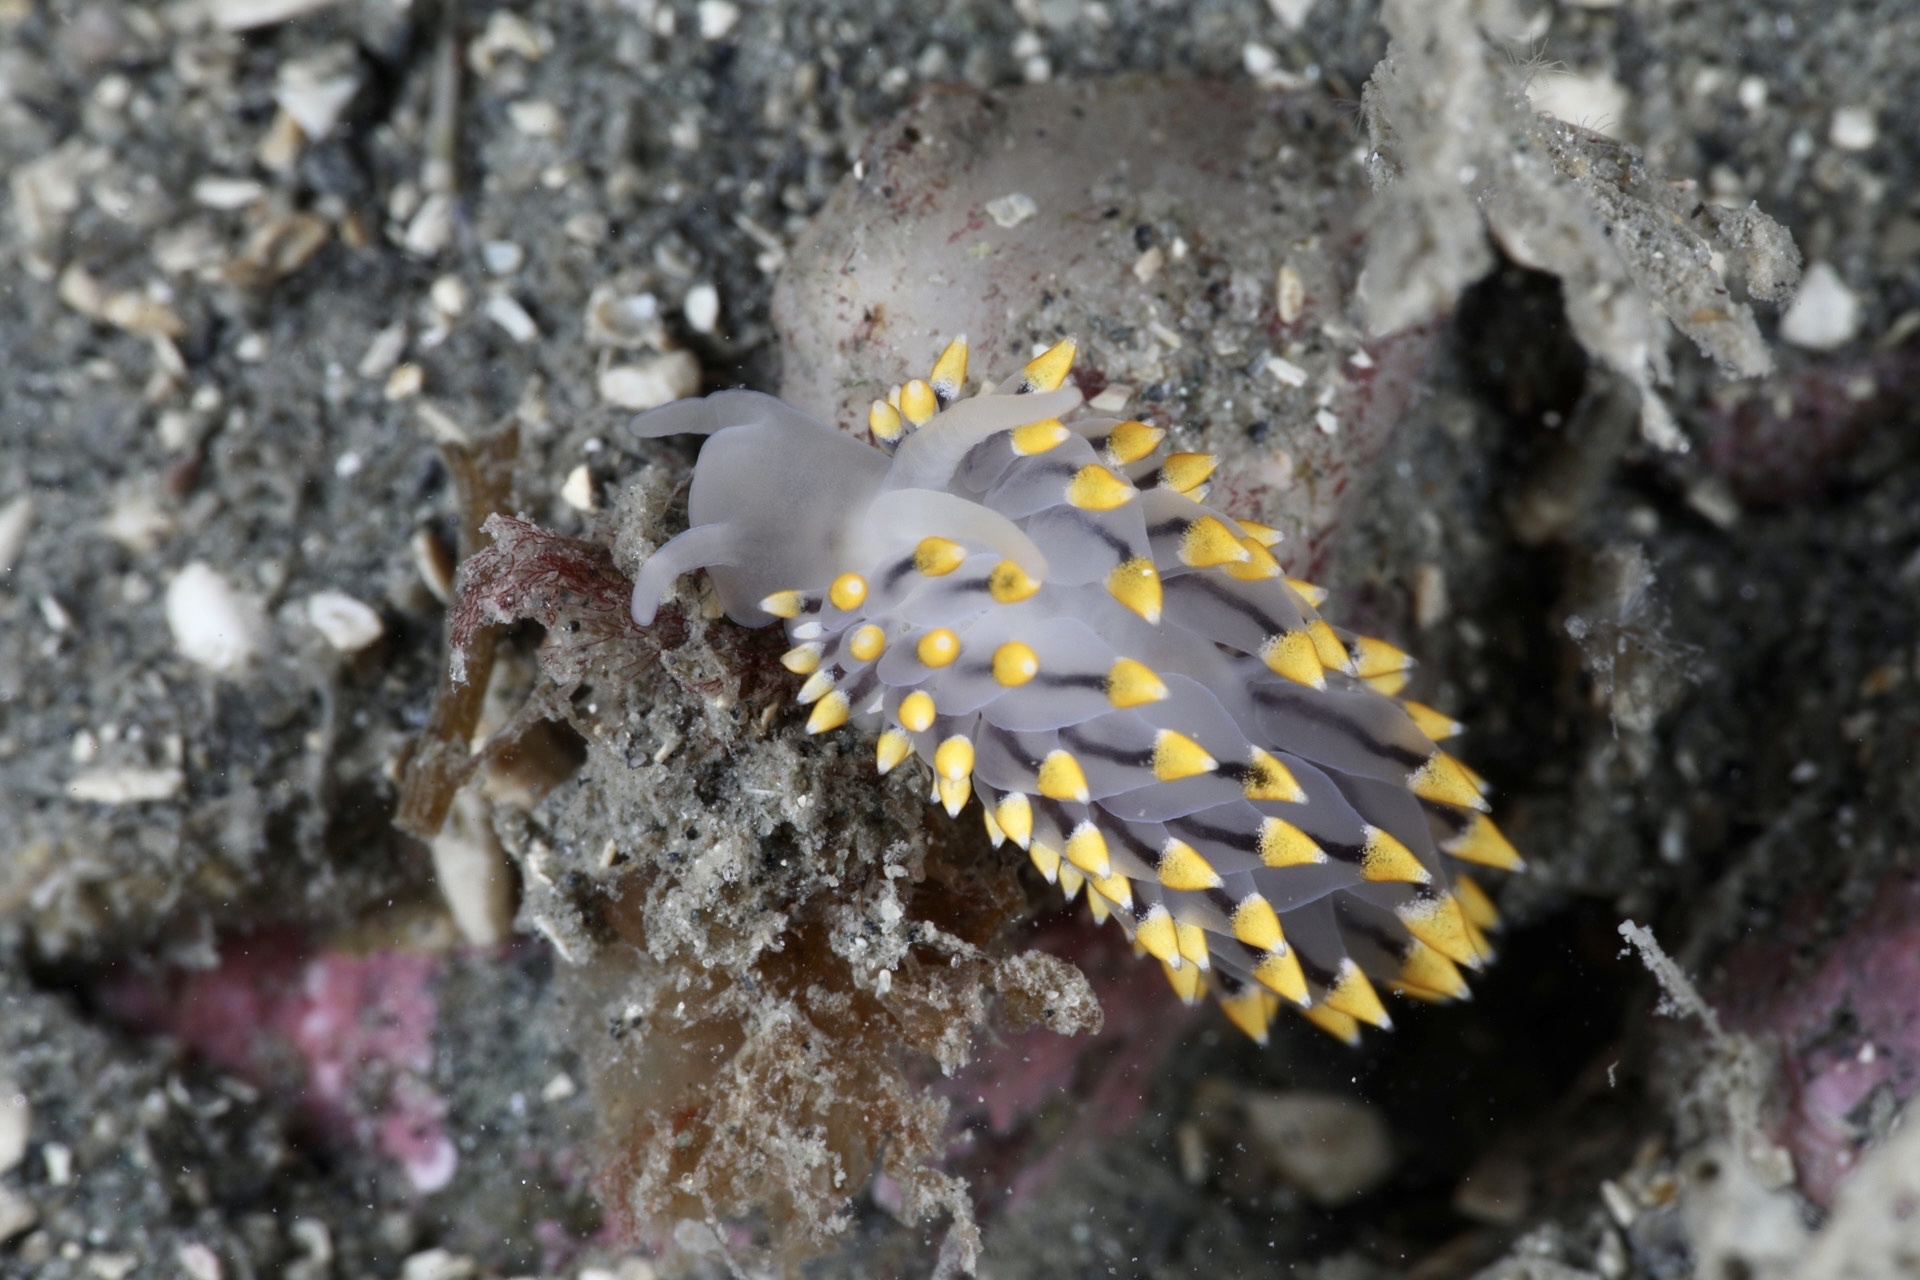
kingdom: Animalia
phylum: Mollusca
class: Gastropoda
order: Nudibranchia
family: Eubranchidae
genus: Eubranchus
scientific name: Eubranchus tricolor
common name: Painted balloon aeolis
